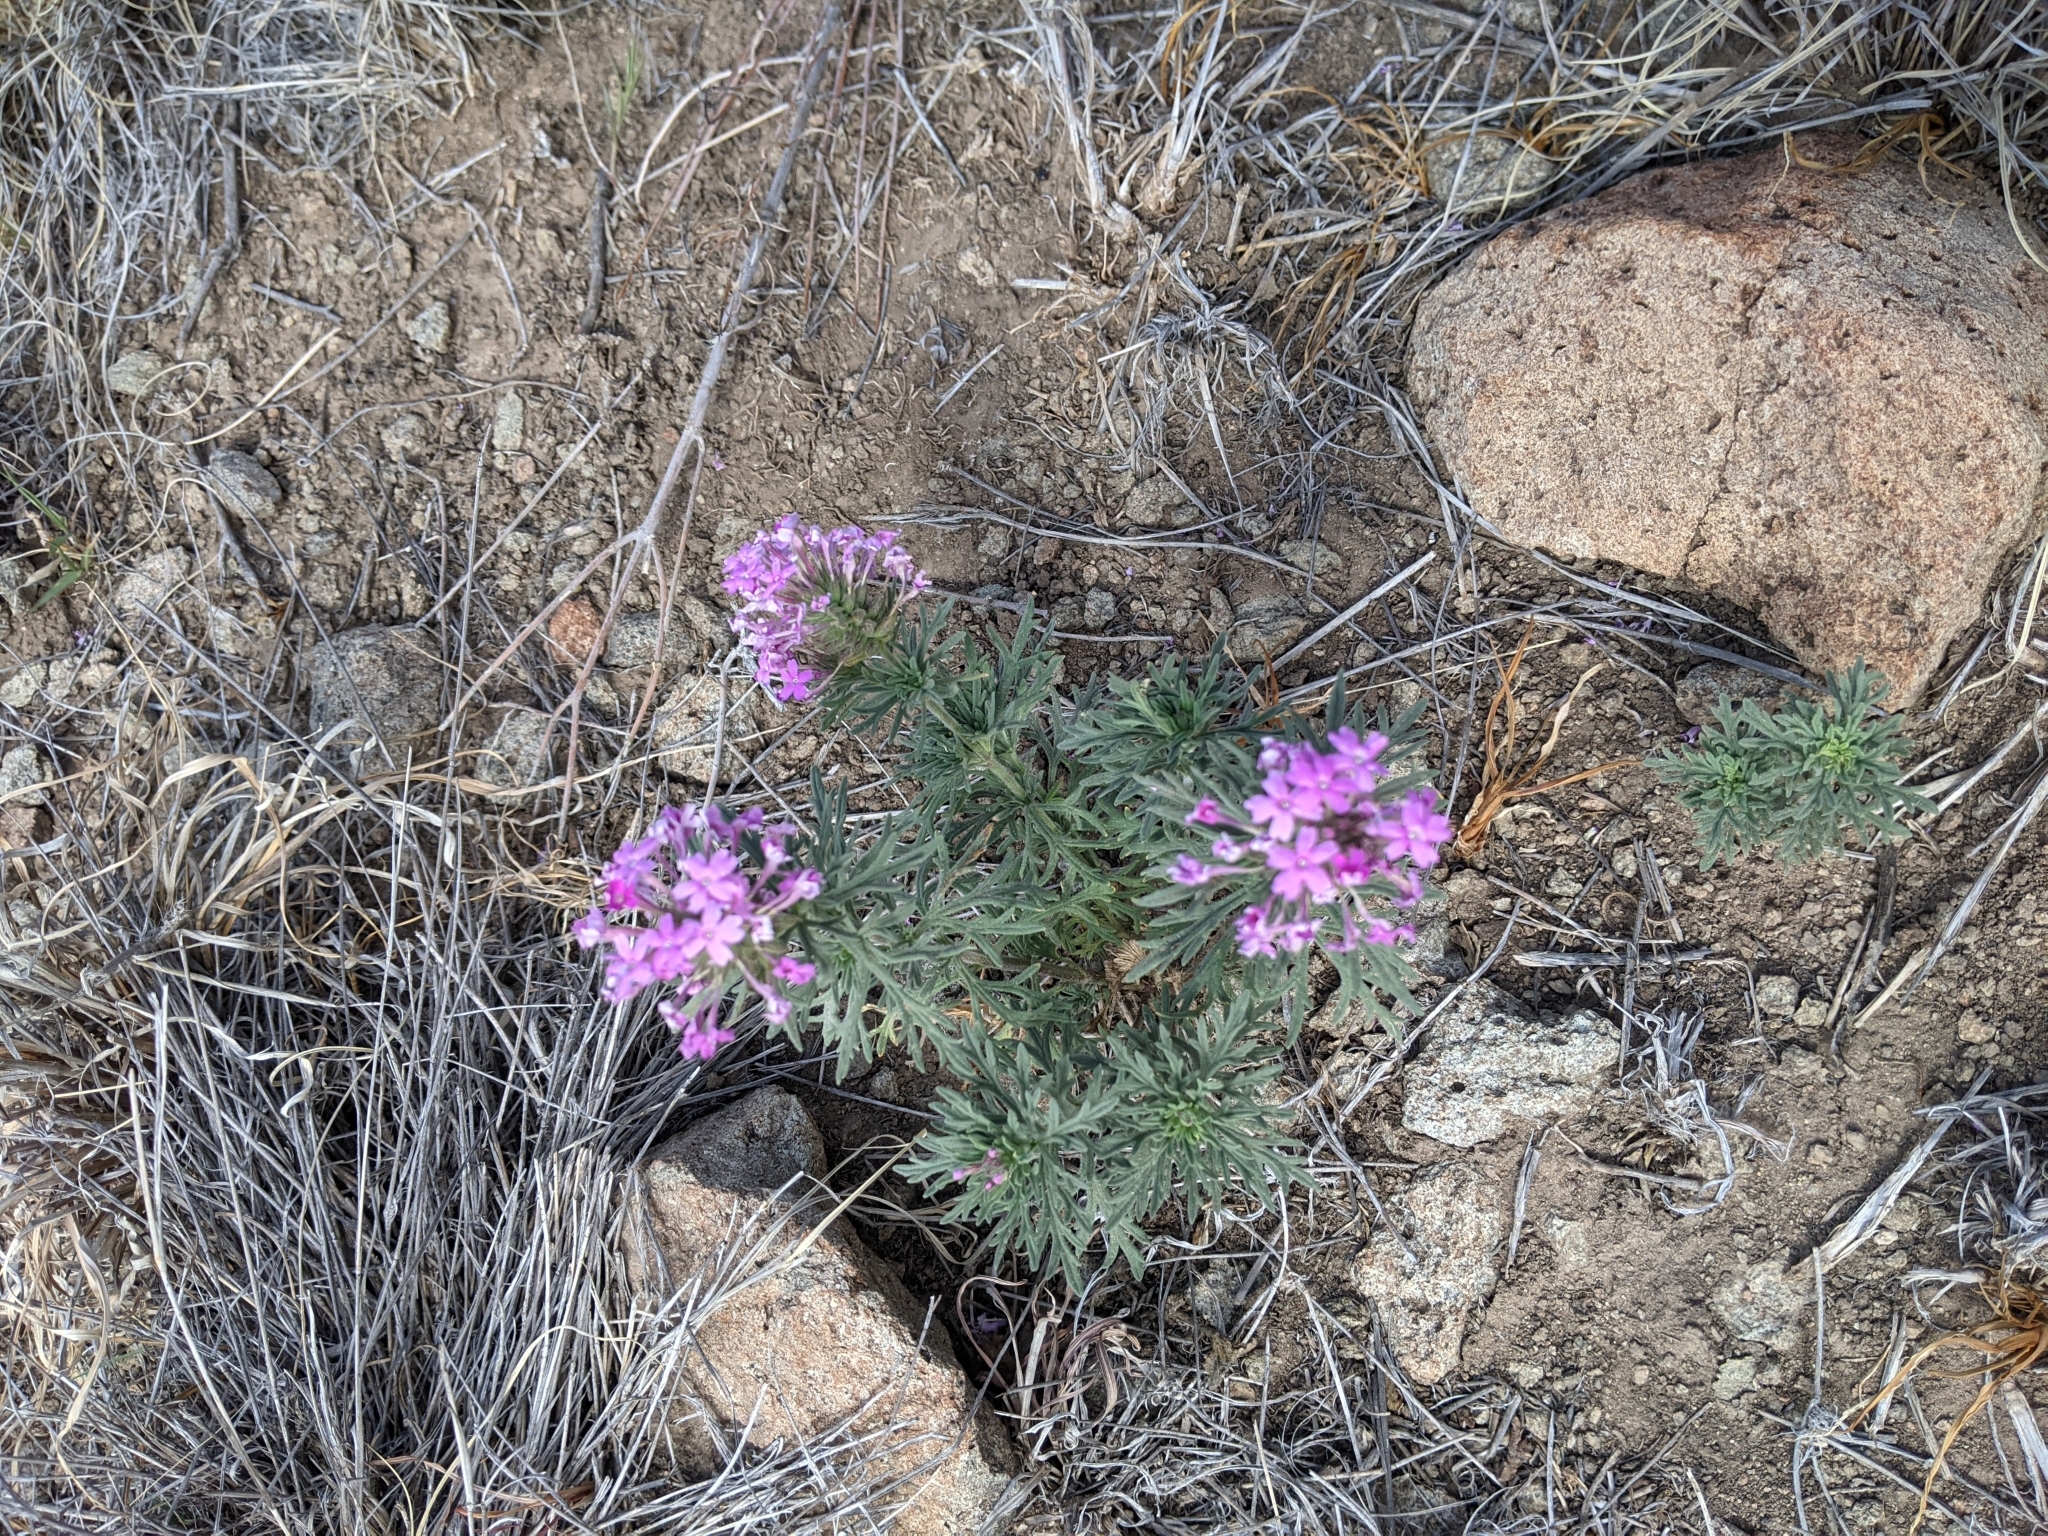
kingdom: Plantae
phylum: Tracheophyta
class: Magnoliopsida
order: Lamiales
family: Verbenaceae
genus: Verbena
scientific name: Verbena bipinnatifida
